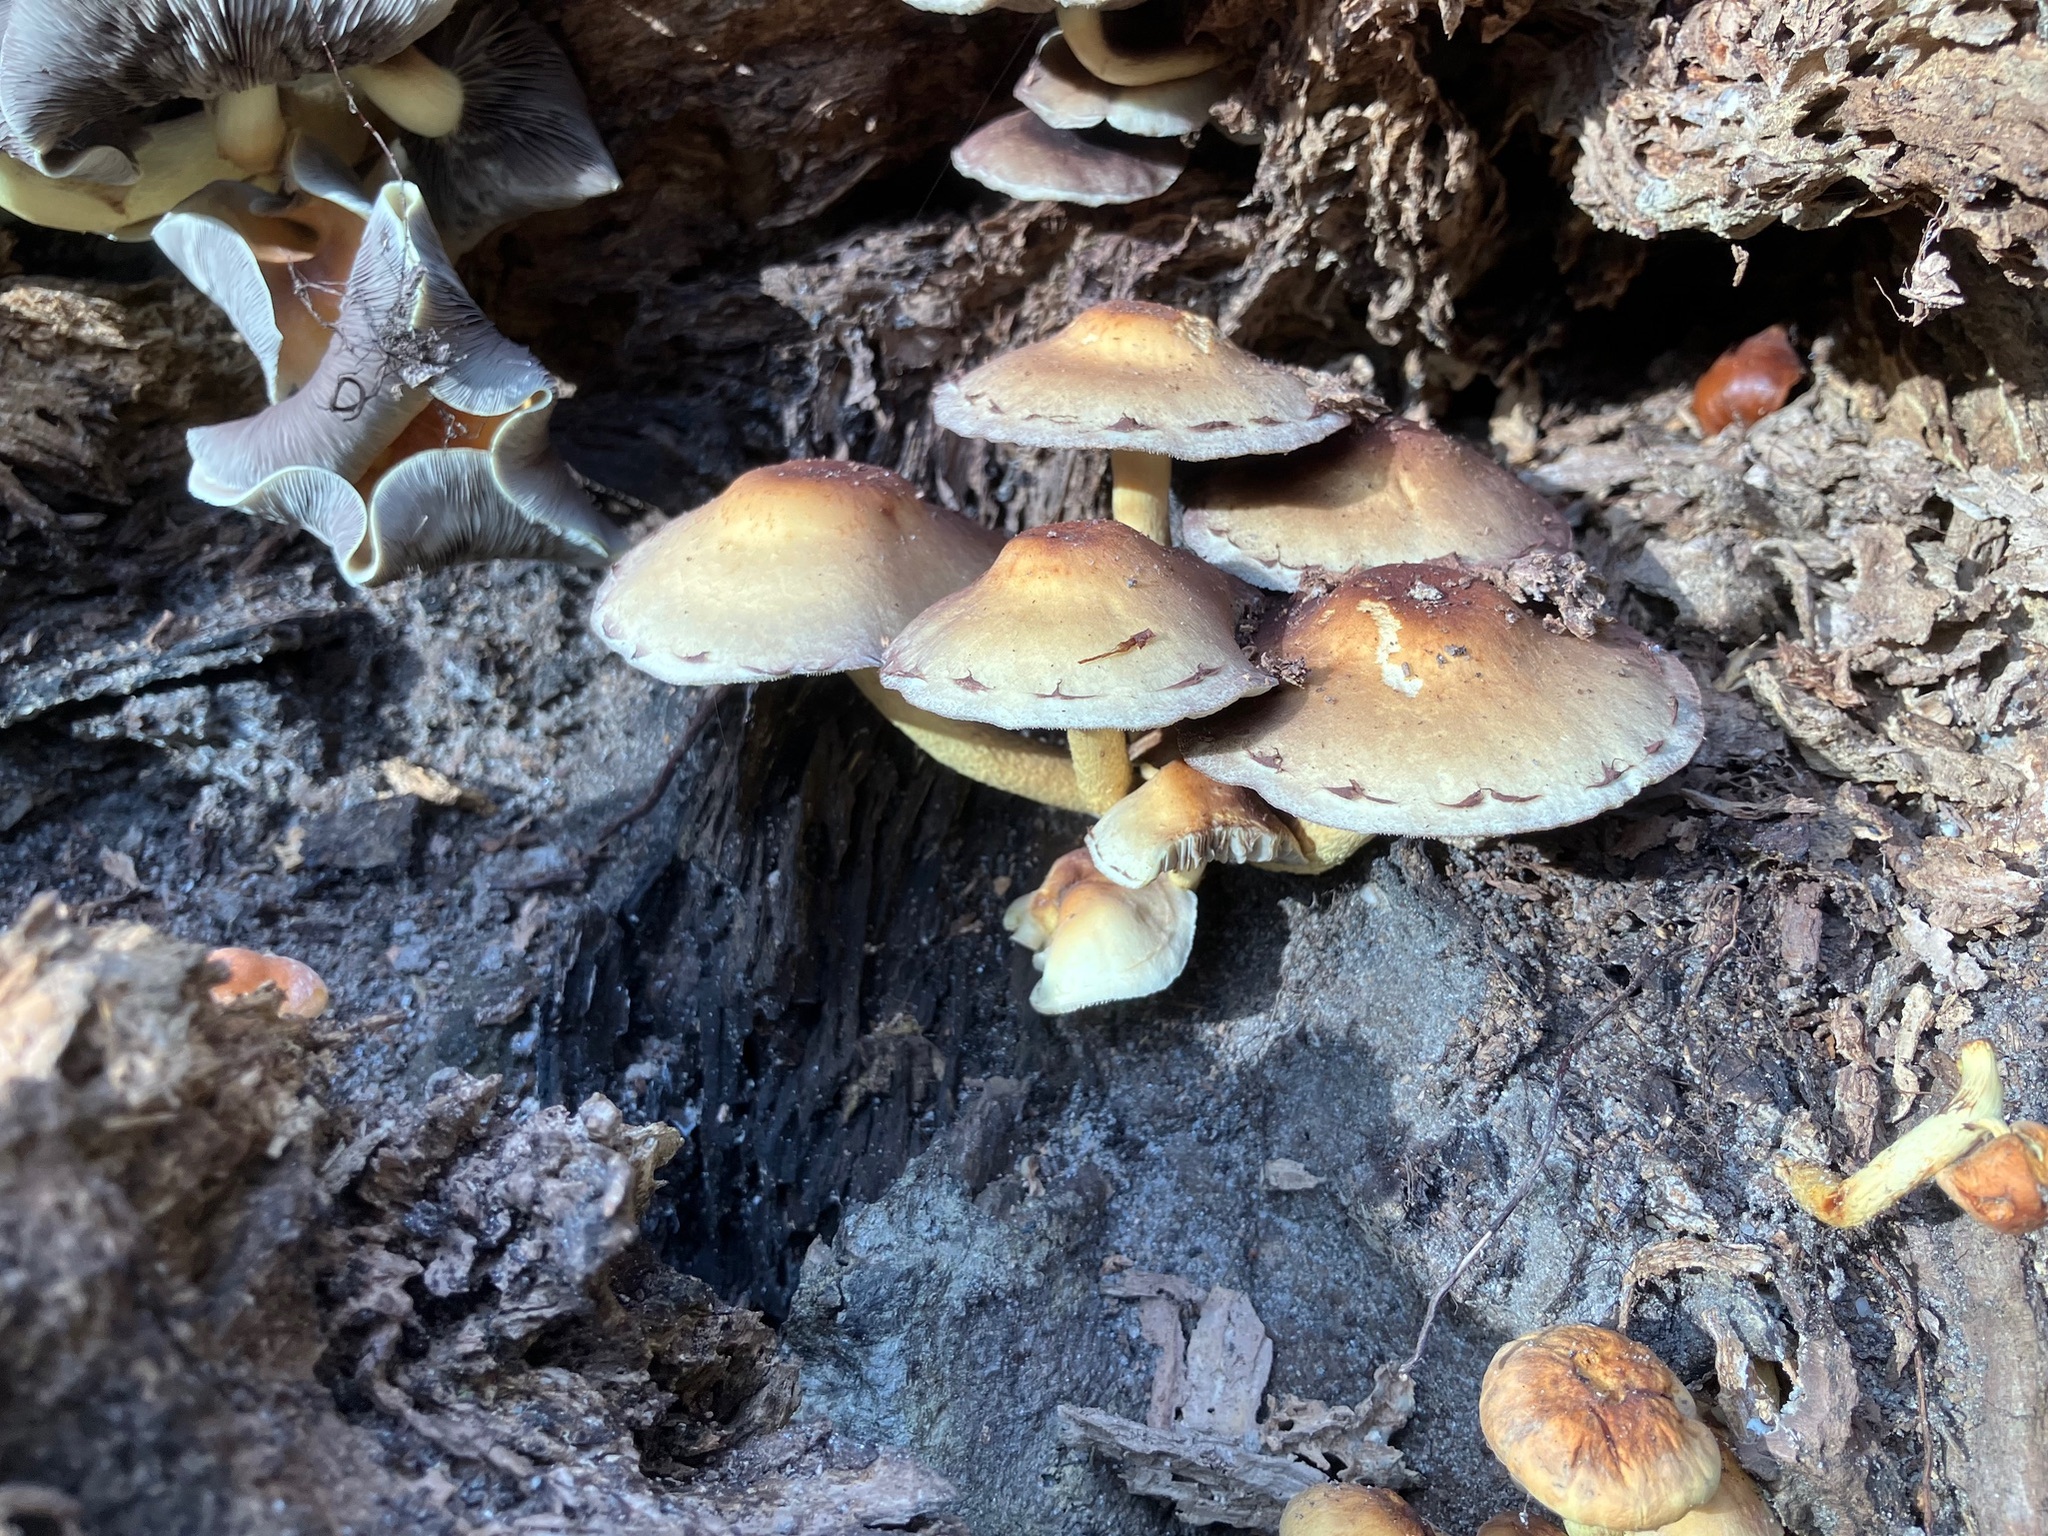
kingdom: Fungi
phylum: Basidiomycota
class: Agaricomycetes
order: Agaricales
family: Strophariaceae
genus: Hypholoma
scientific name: Hypholoma fasciculare
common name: Sulphur tuft
